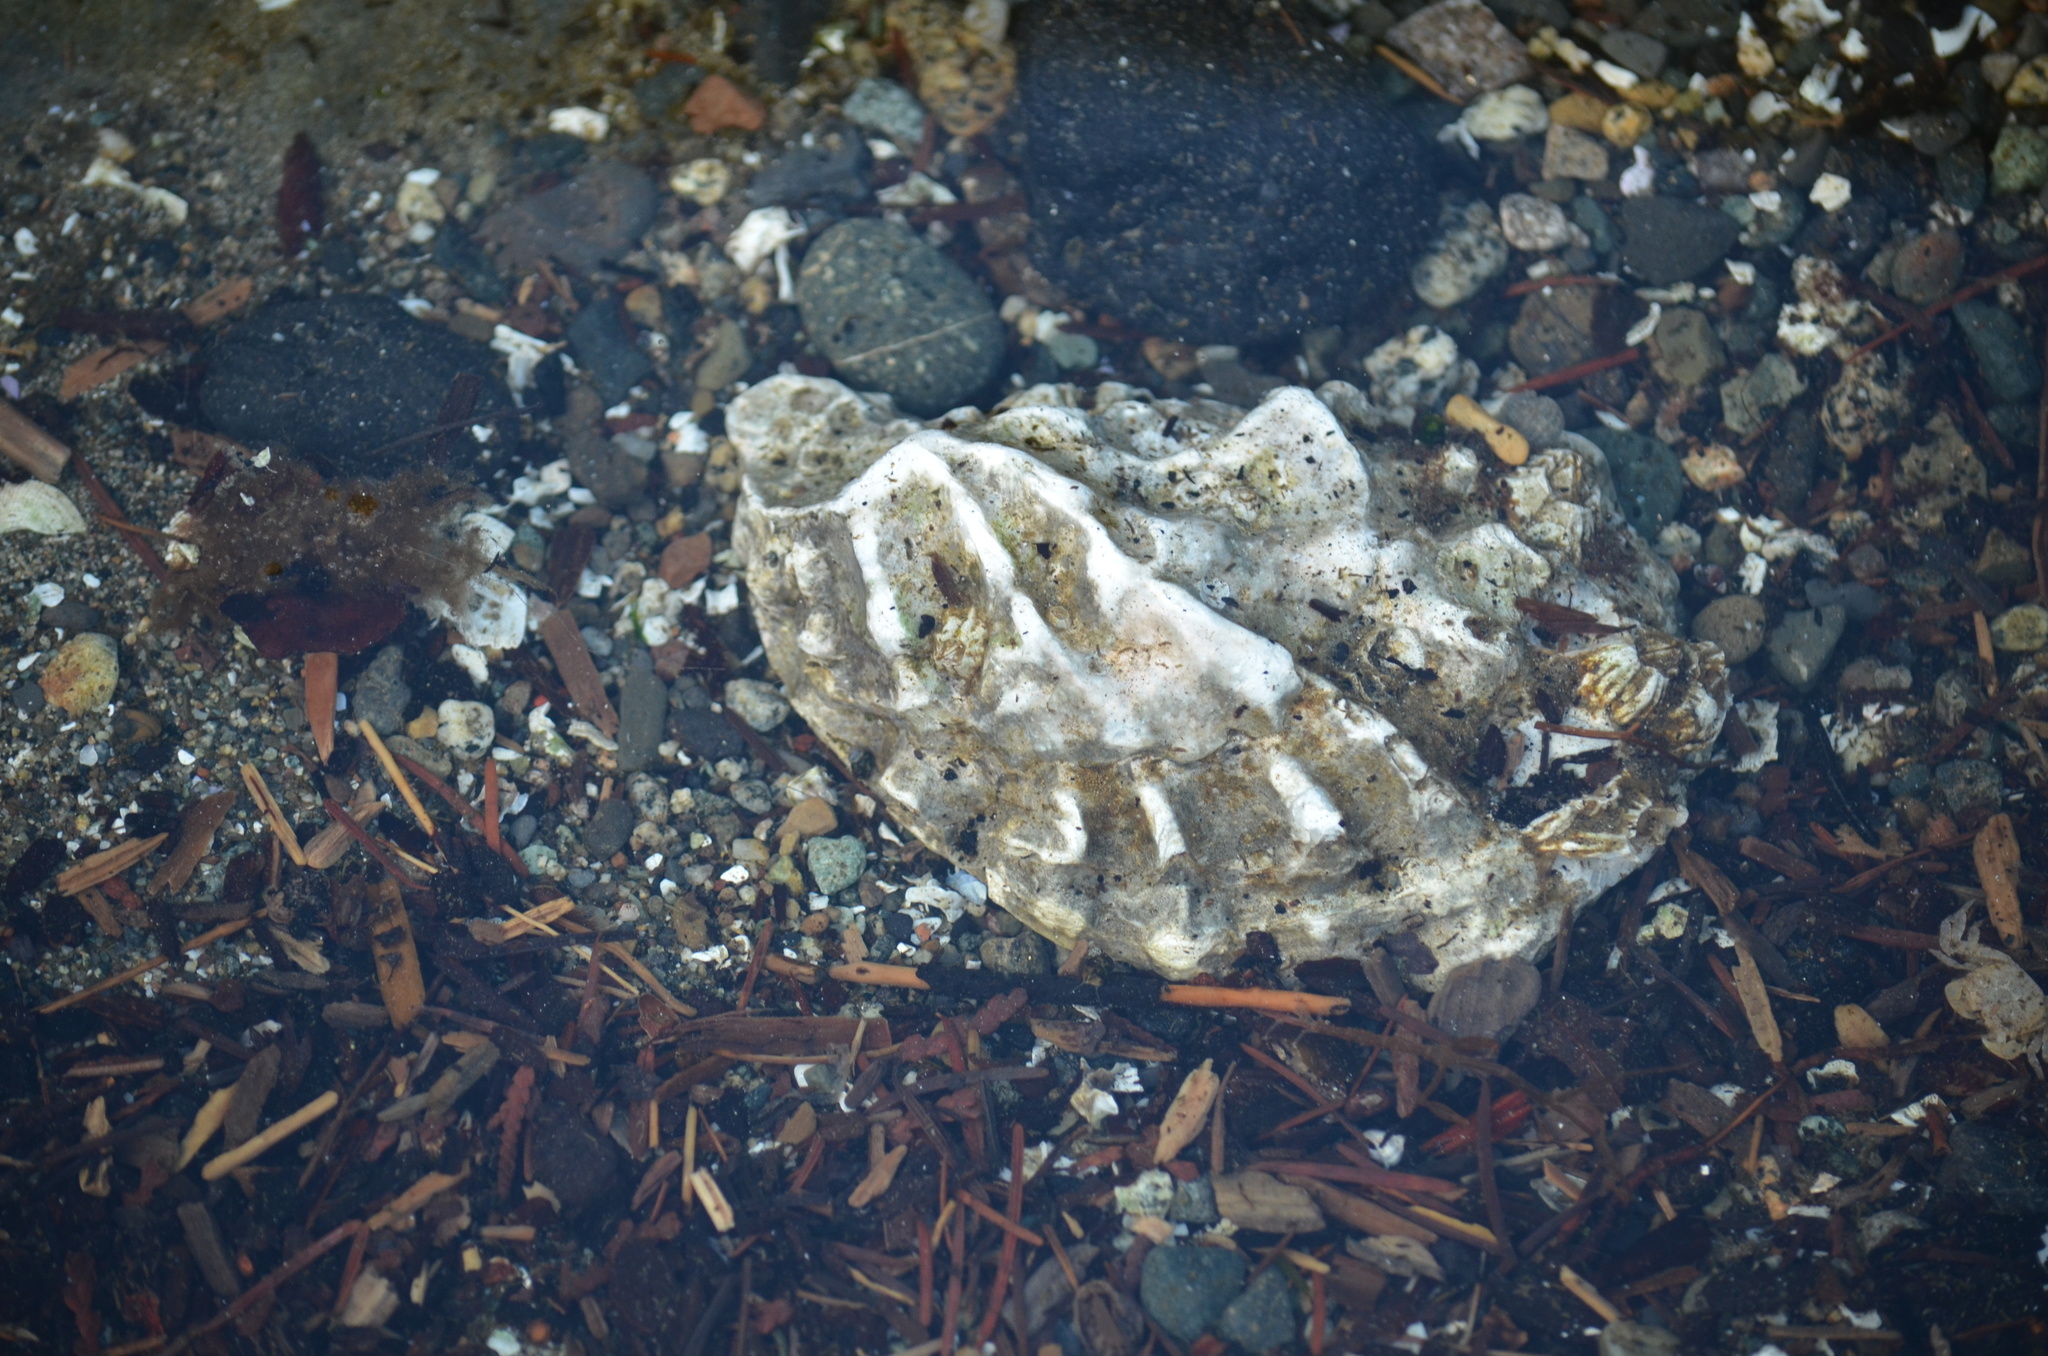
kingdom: Animalia
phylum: Mollusca
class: Bivalvia
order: Ostreida
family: Ostreidae
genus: Magallana
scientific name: Magallana gigas
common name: Pacific oyster
